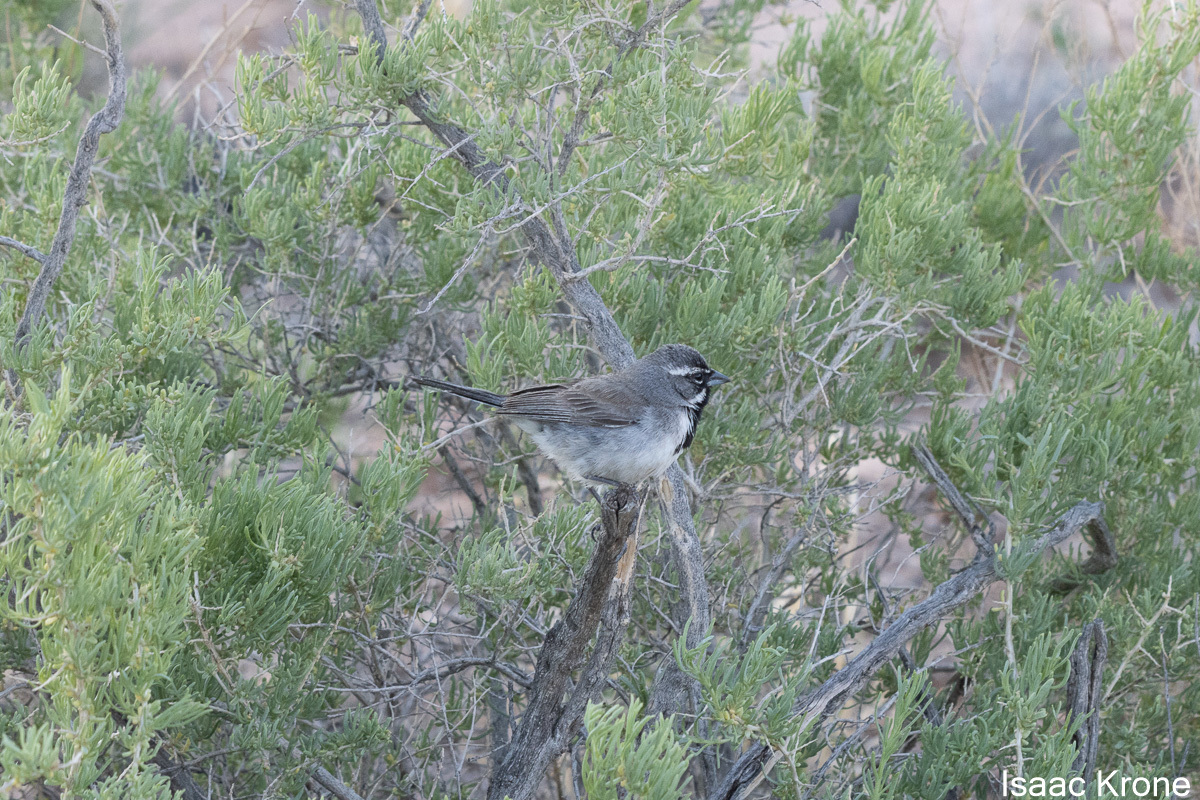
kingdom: Animalia
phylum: Chordata
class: Aves
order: Passeriformes
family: Passerellidae
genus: Amphispiza
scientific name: Amphispiza bilineata
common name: Black-throated sparrow
